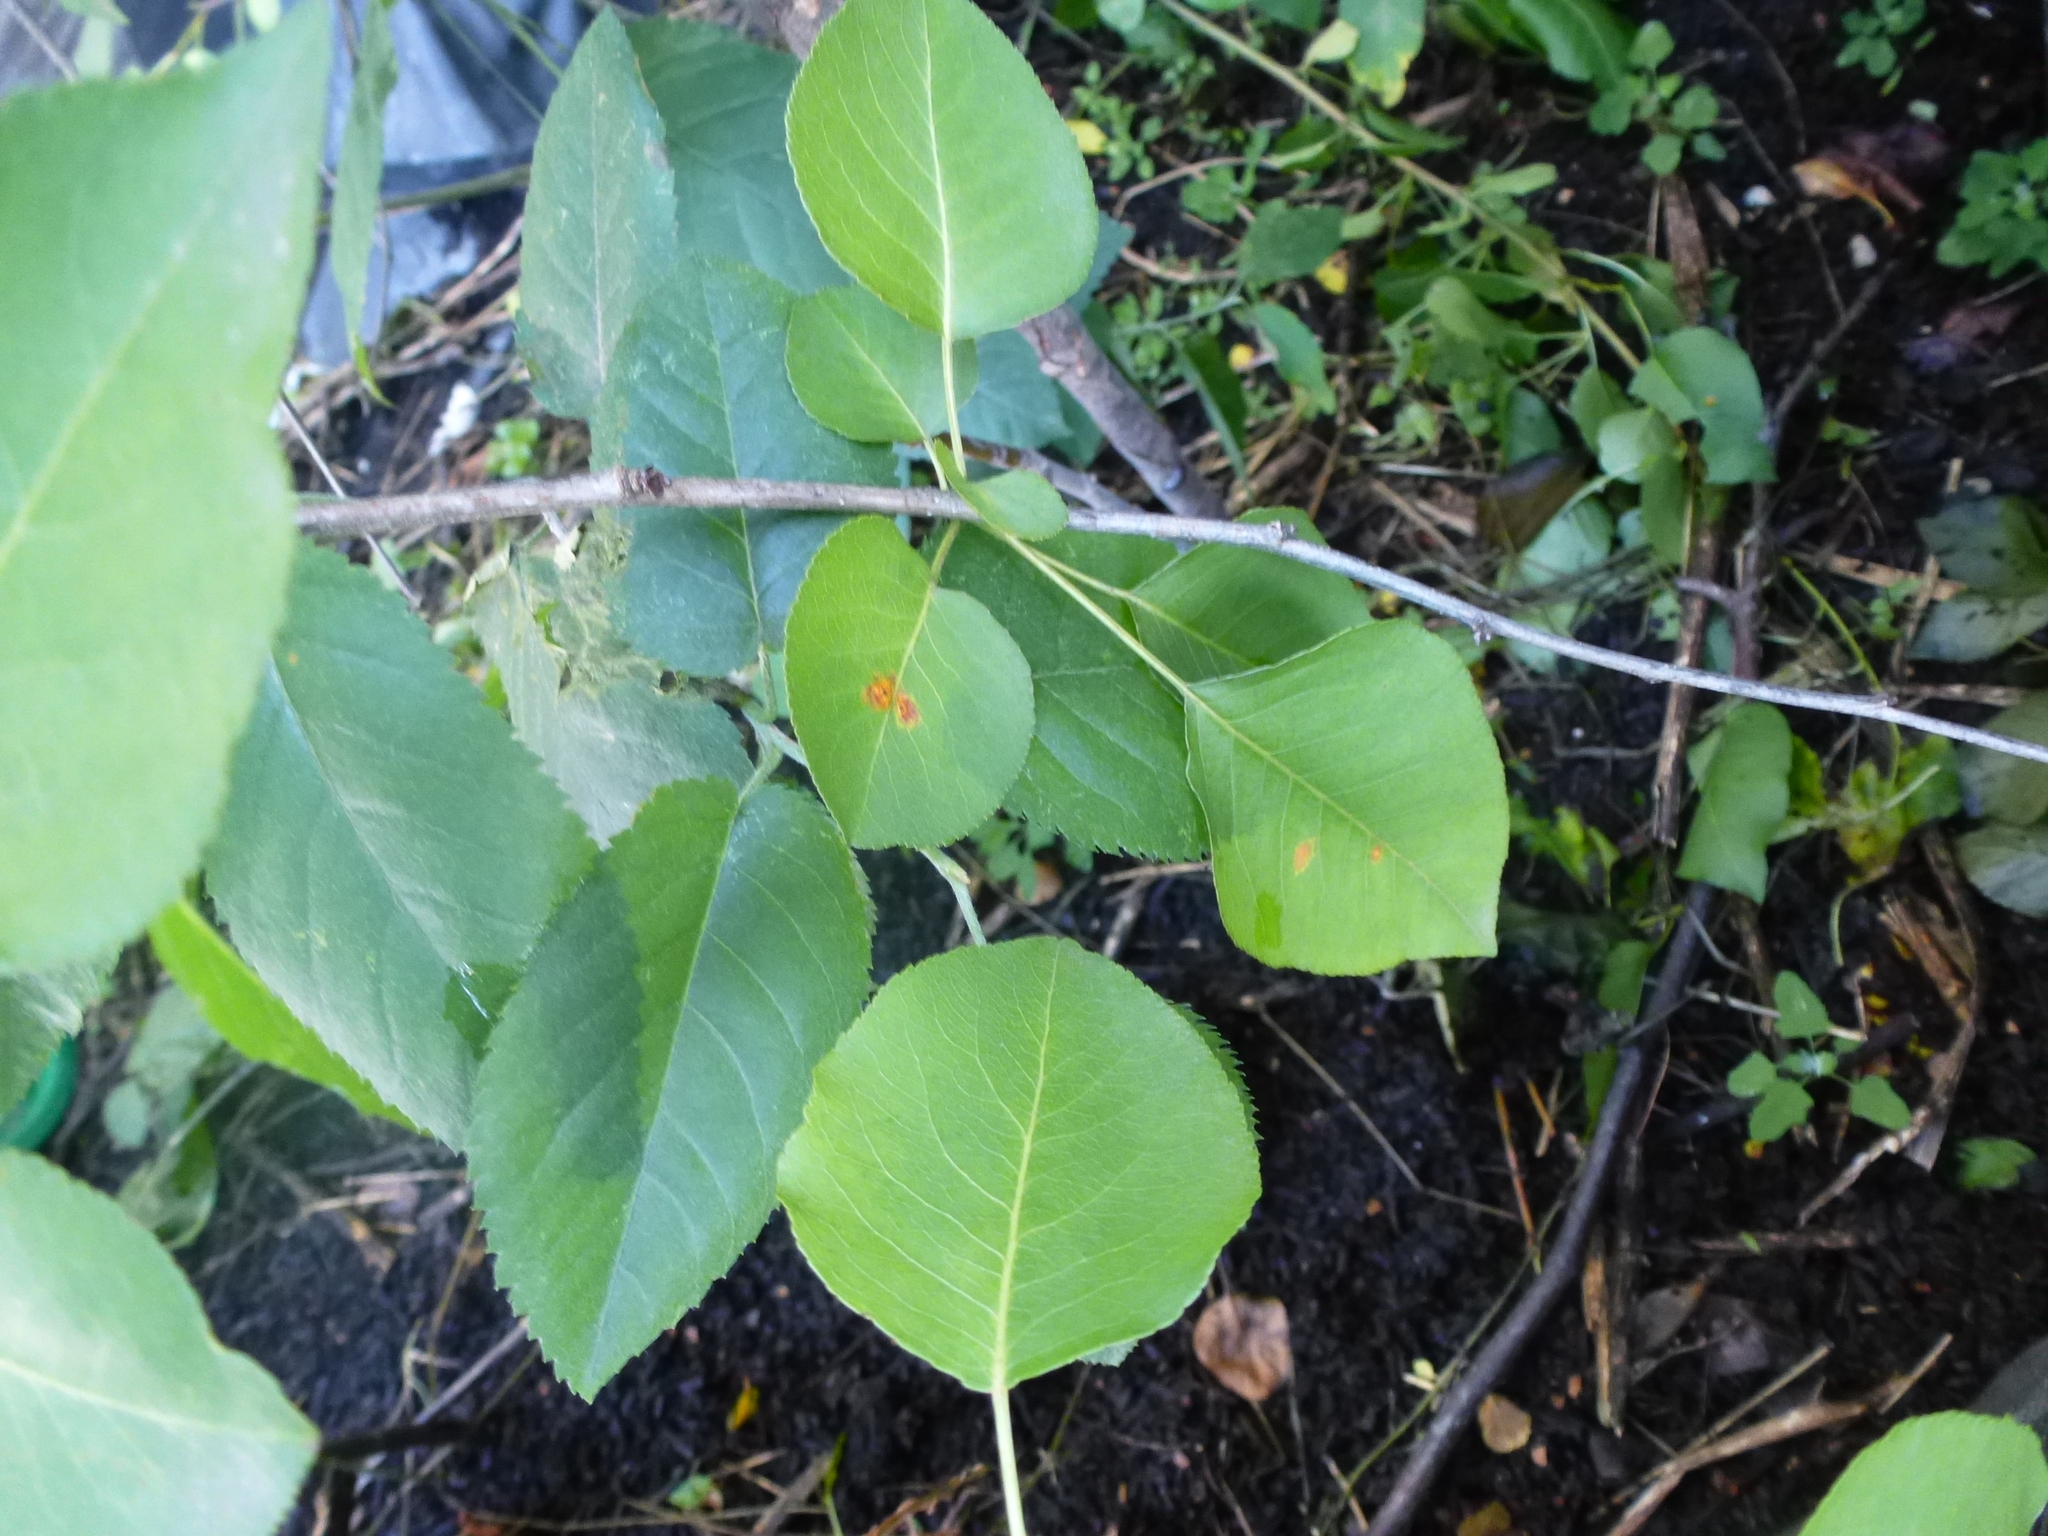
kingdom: Fungi
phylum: Basidiomycota
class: Pucciniomycetes
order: Pucciniales
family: Gymnosporangiaceae
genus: Gymnosporangium
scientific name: Gymnosporangium sabinae
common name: Pear trellis rust fungus
